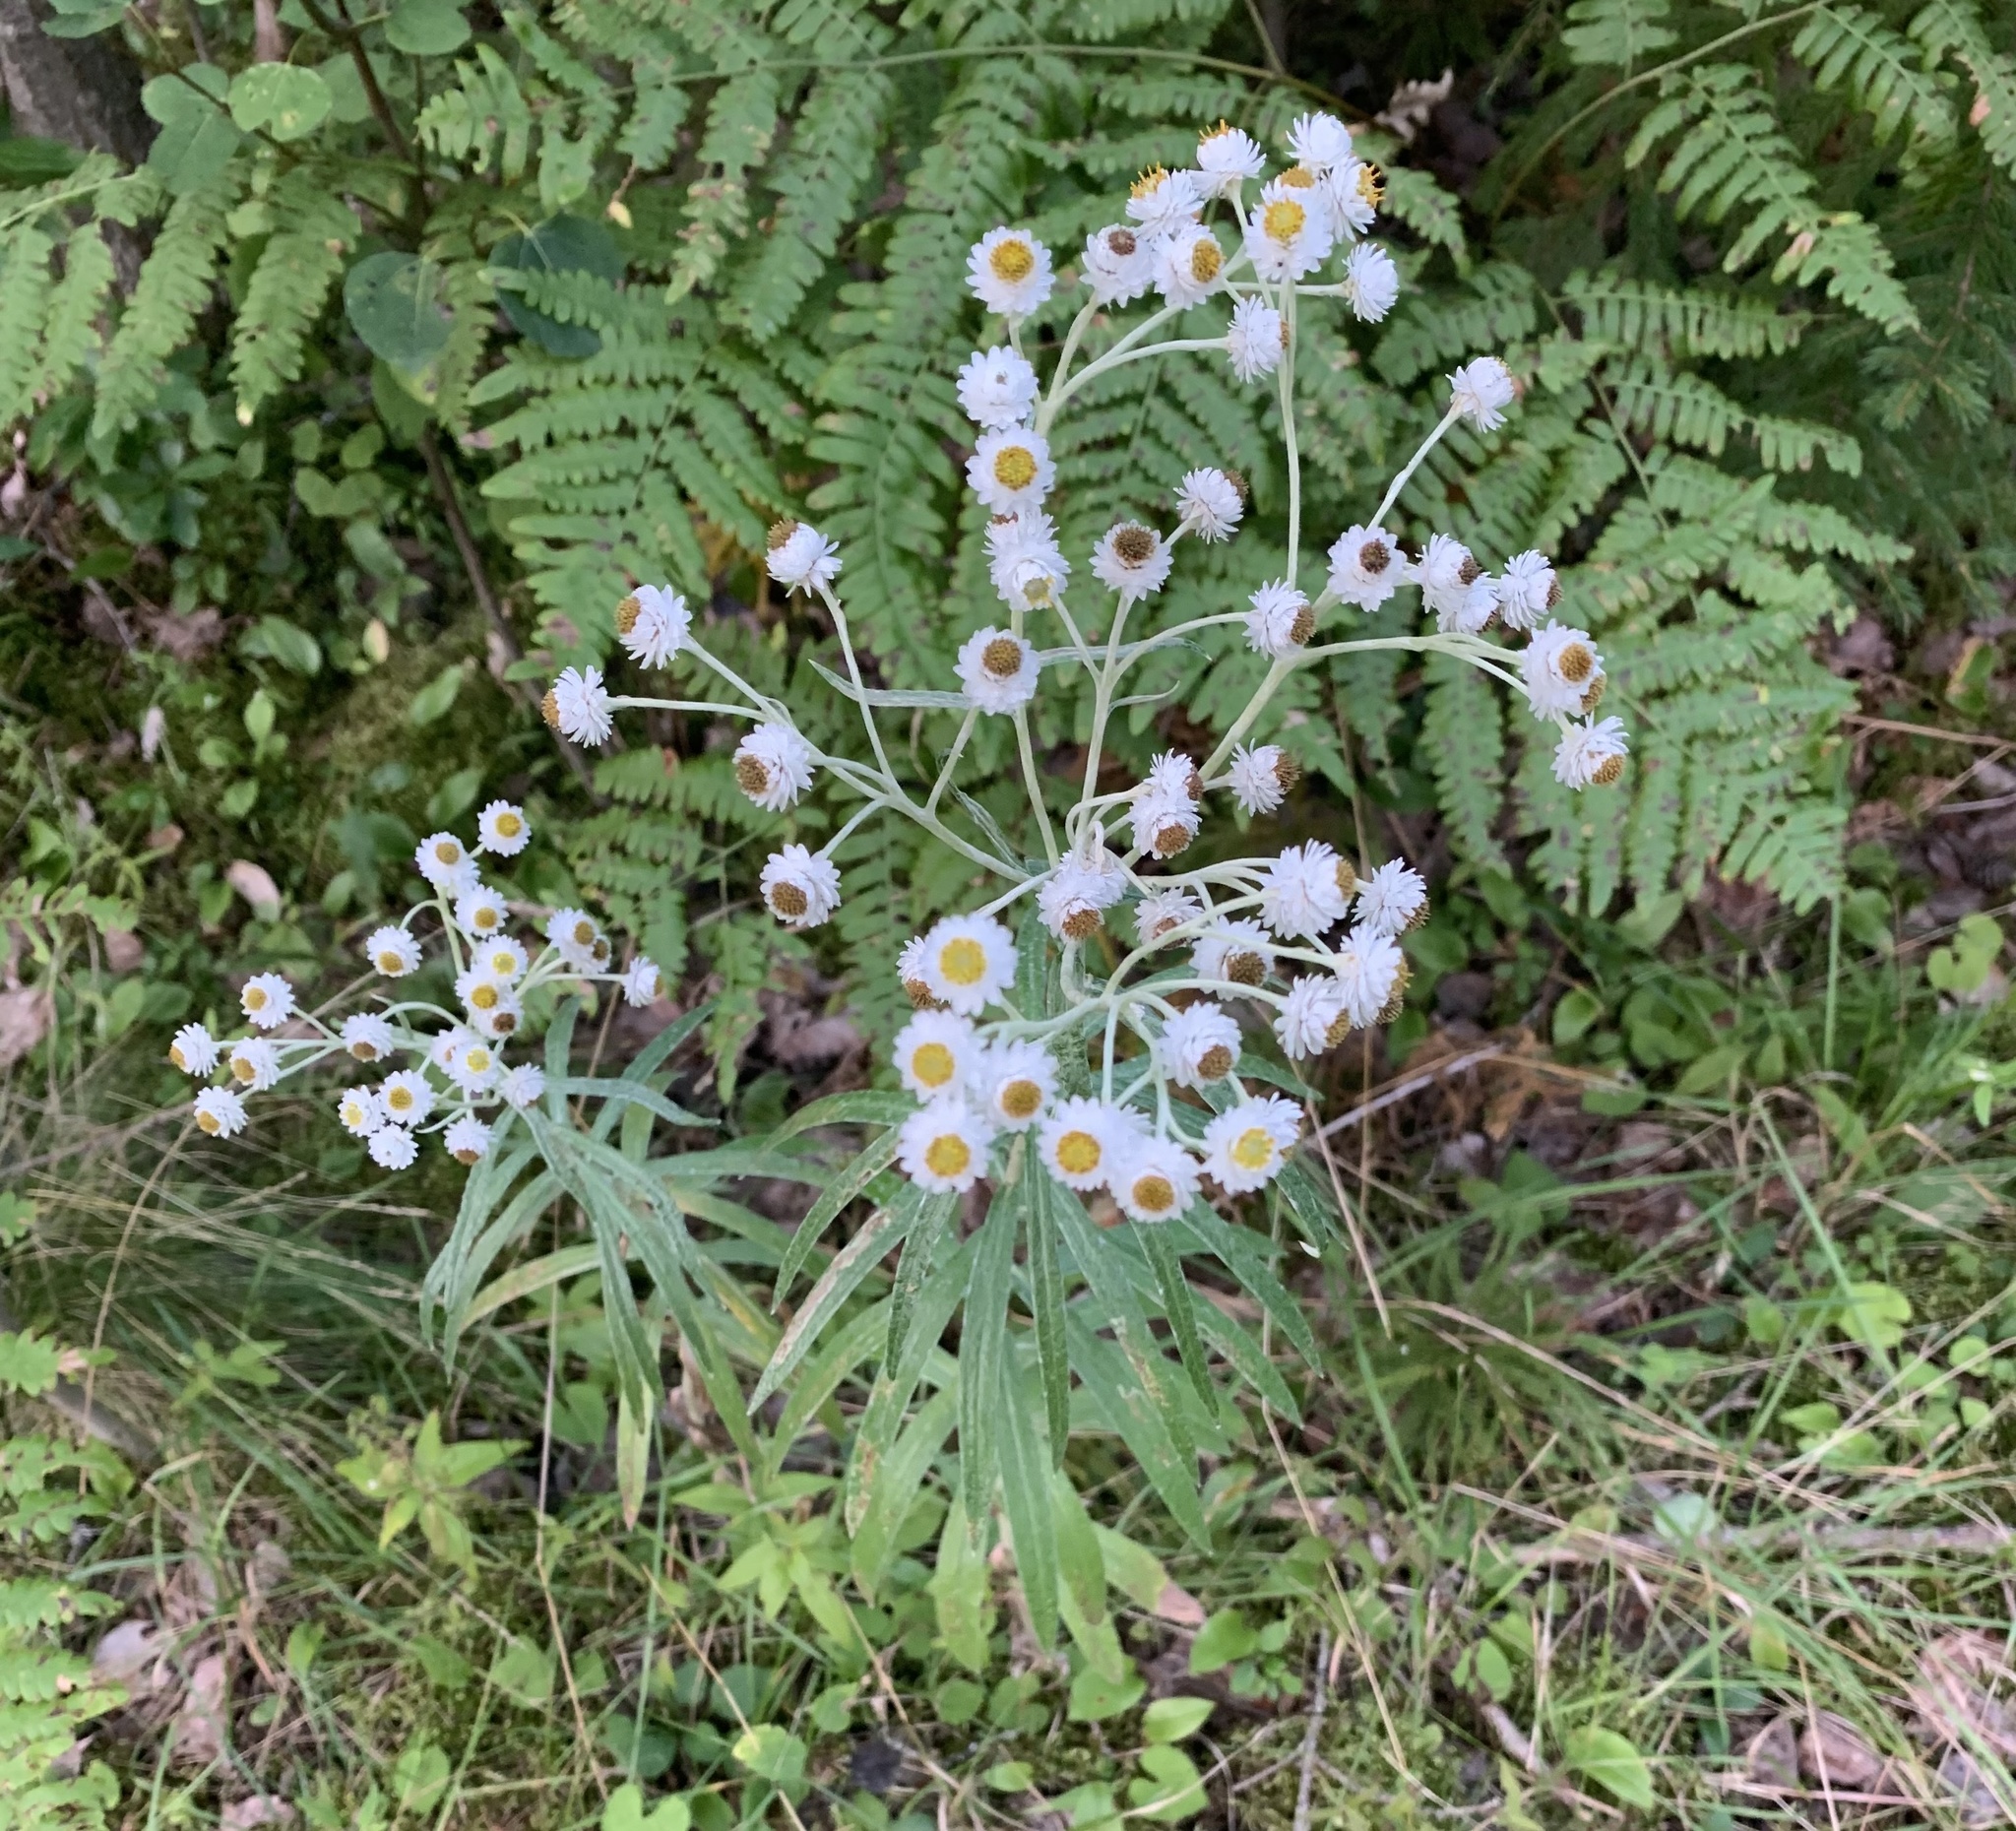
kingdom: Plantae
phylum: Tracheophyta
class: Magnoliopsida
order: Asterales
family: Asteraceae
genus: Anaphalis
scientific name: Anaphalis margaritacea
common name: Pearly everlasting
